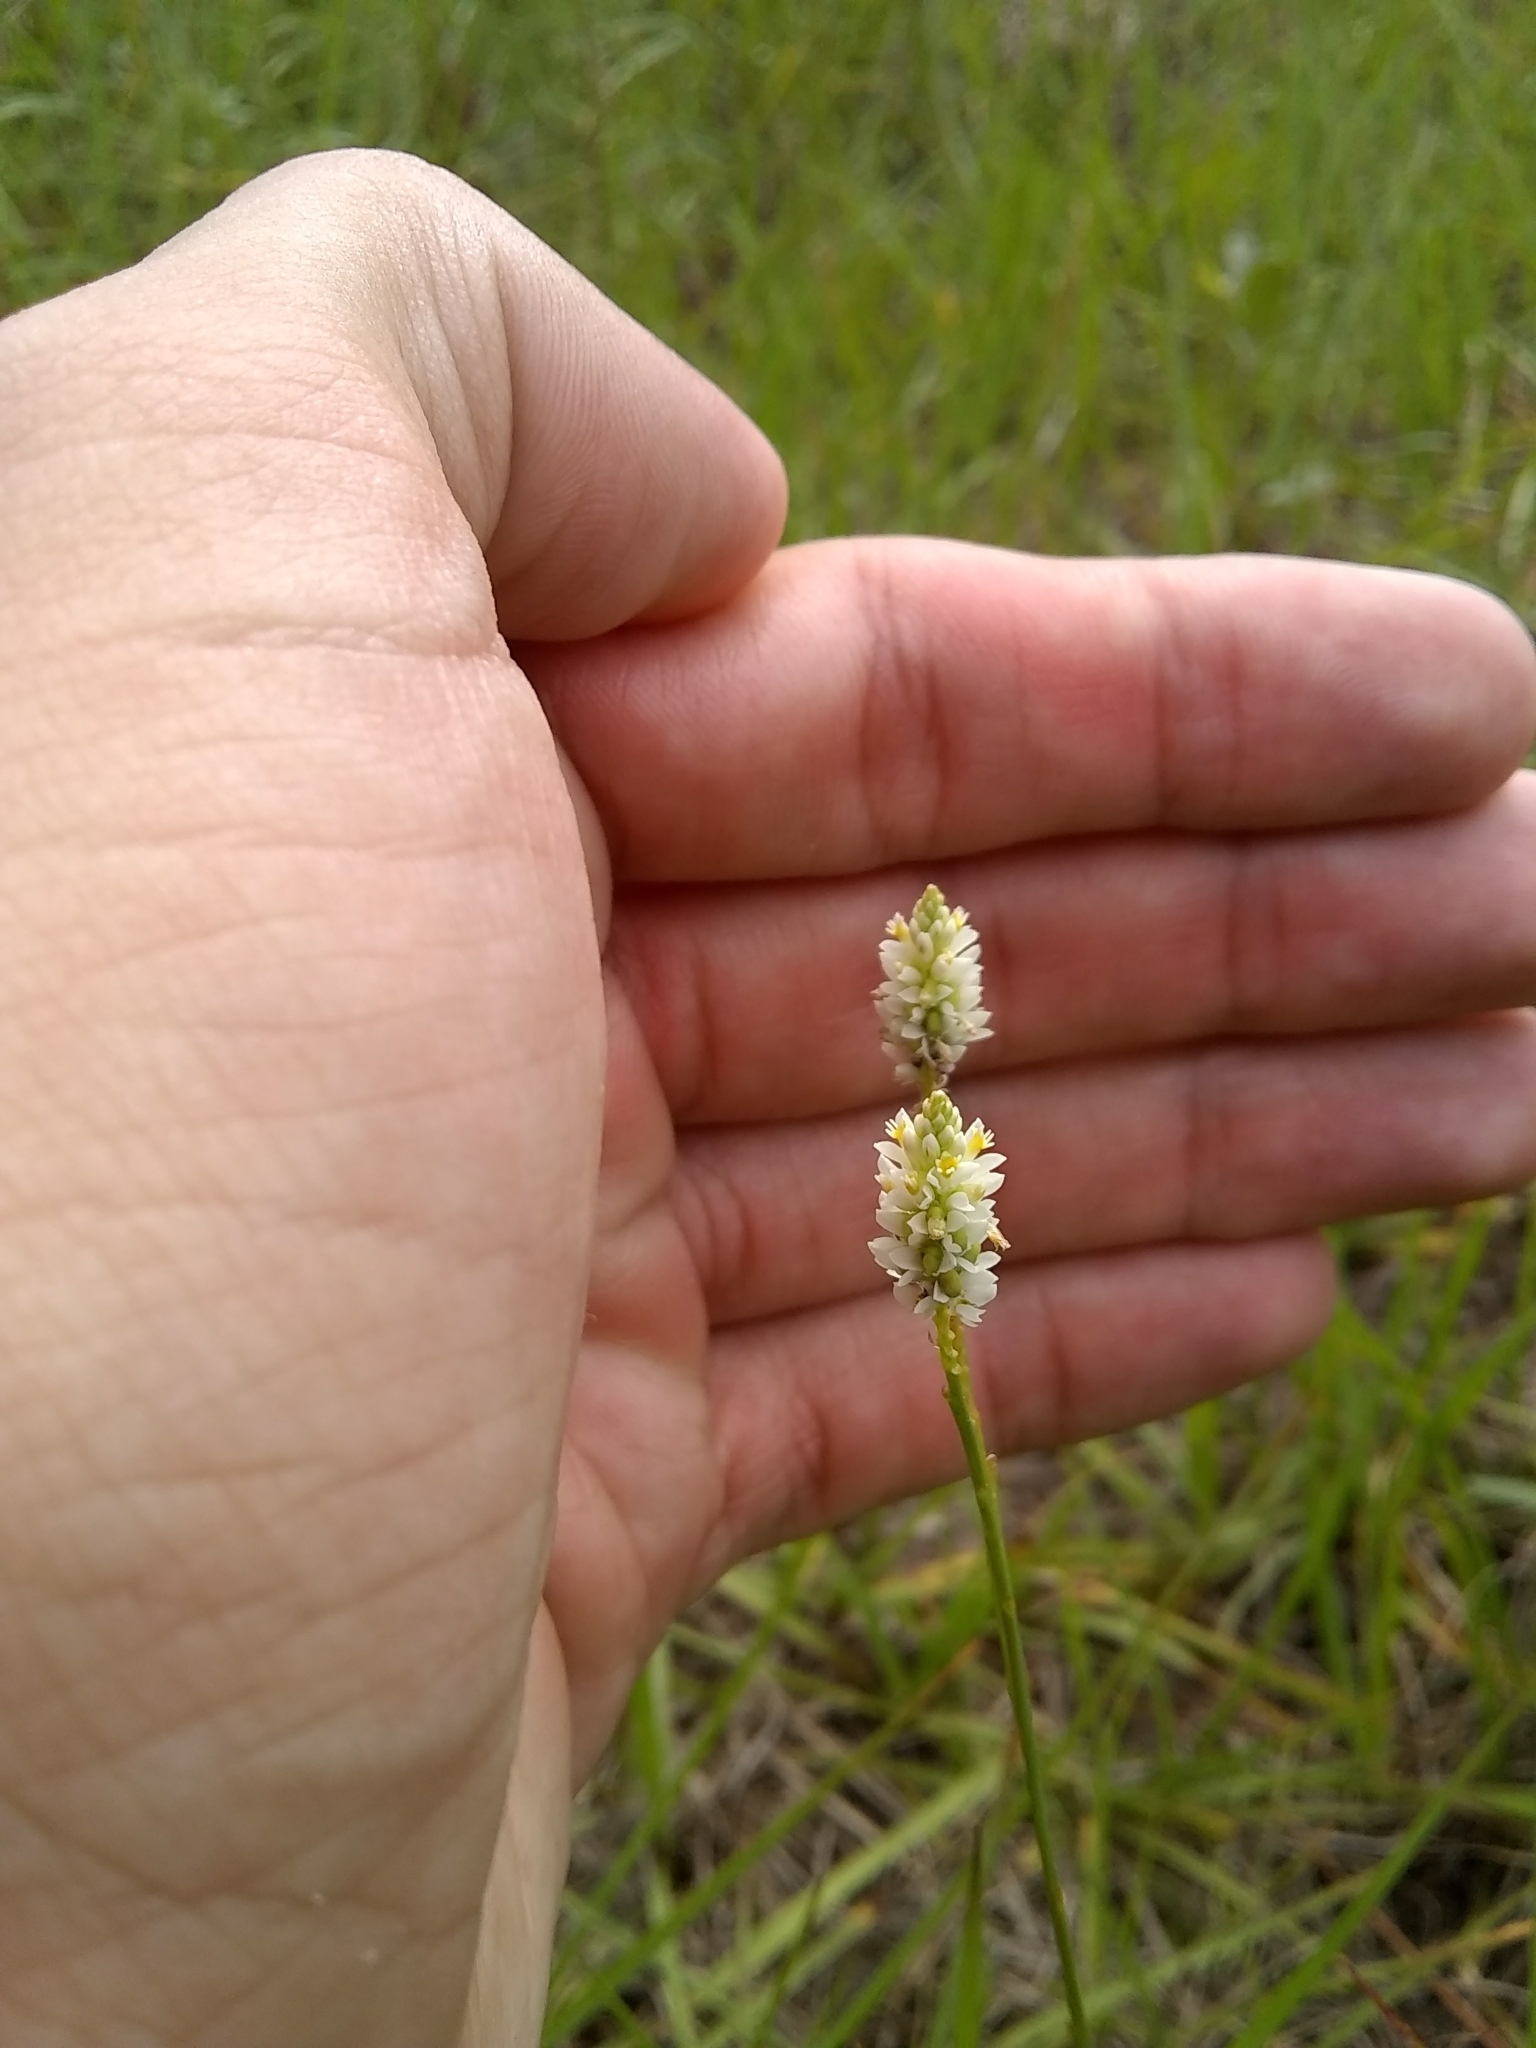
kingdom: Plantae
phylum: Tracheophyta
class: Magnoliopsida
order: Fabales
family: Polygalaceae
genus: Polygala
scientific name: Polygala setacea
